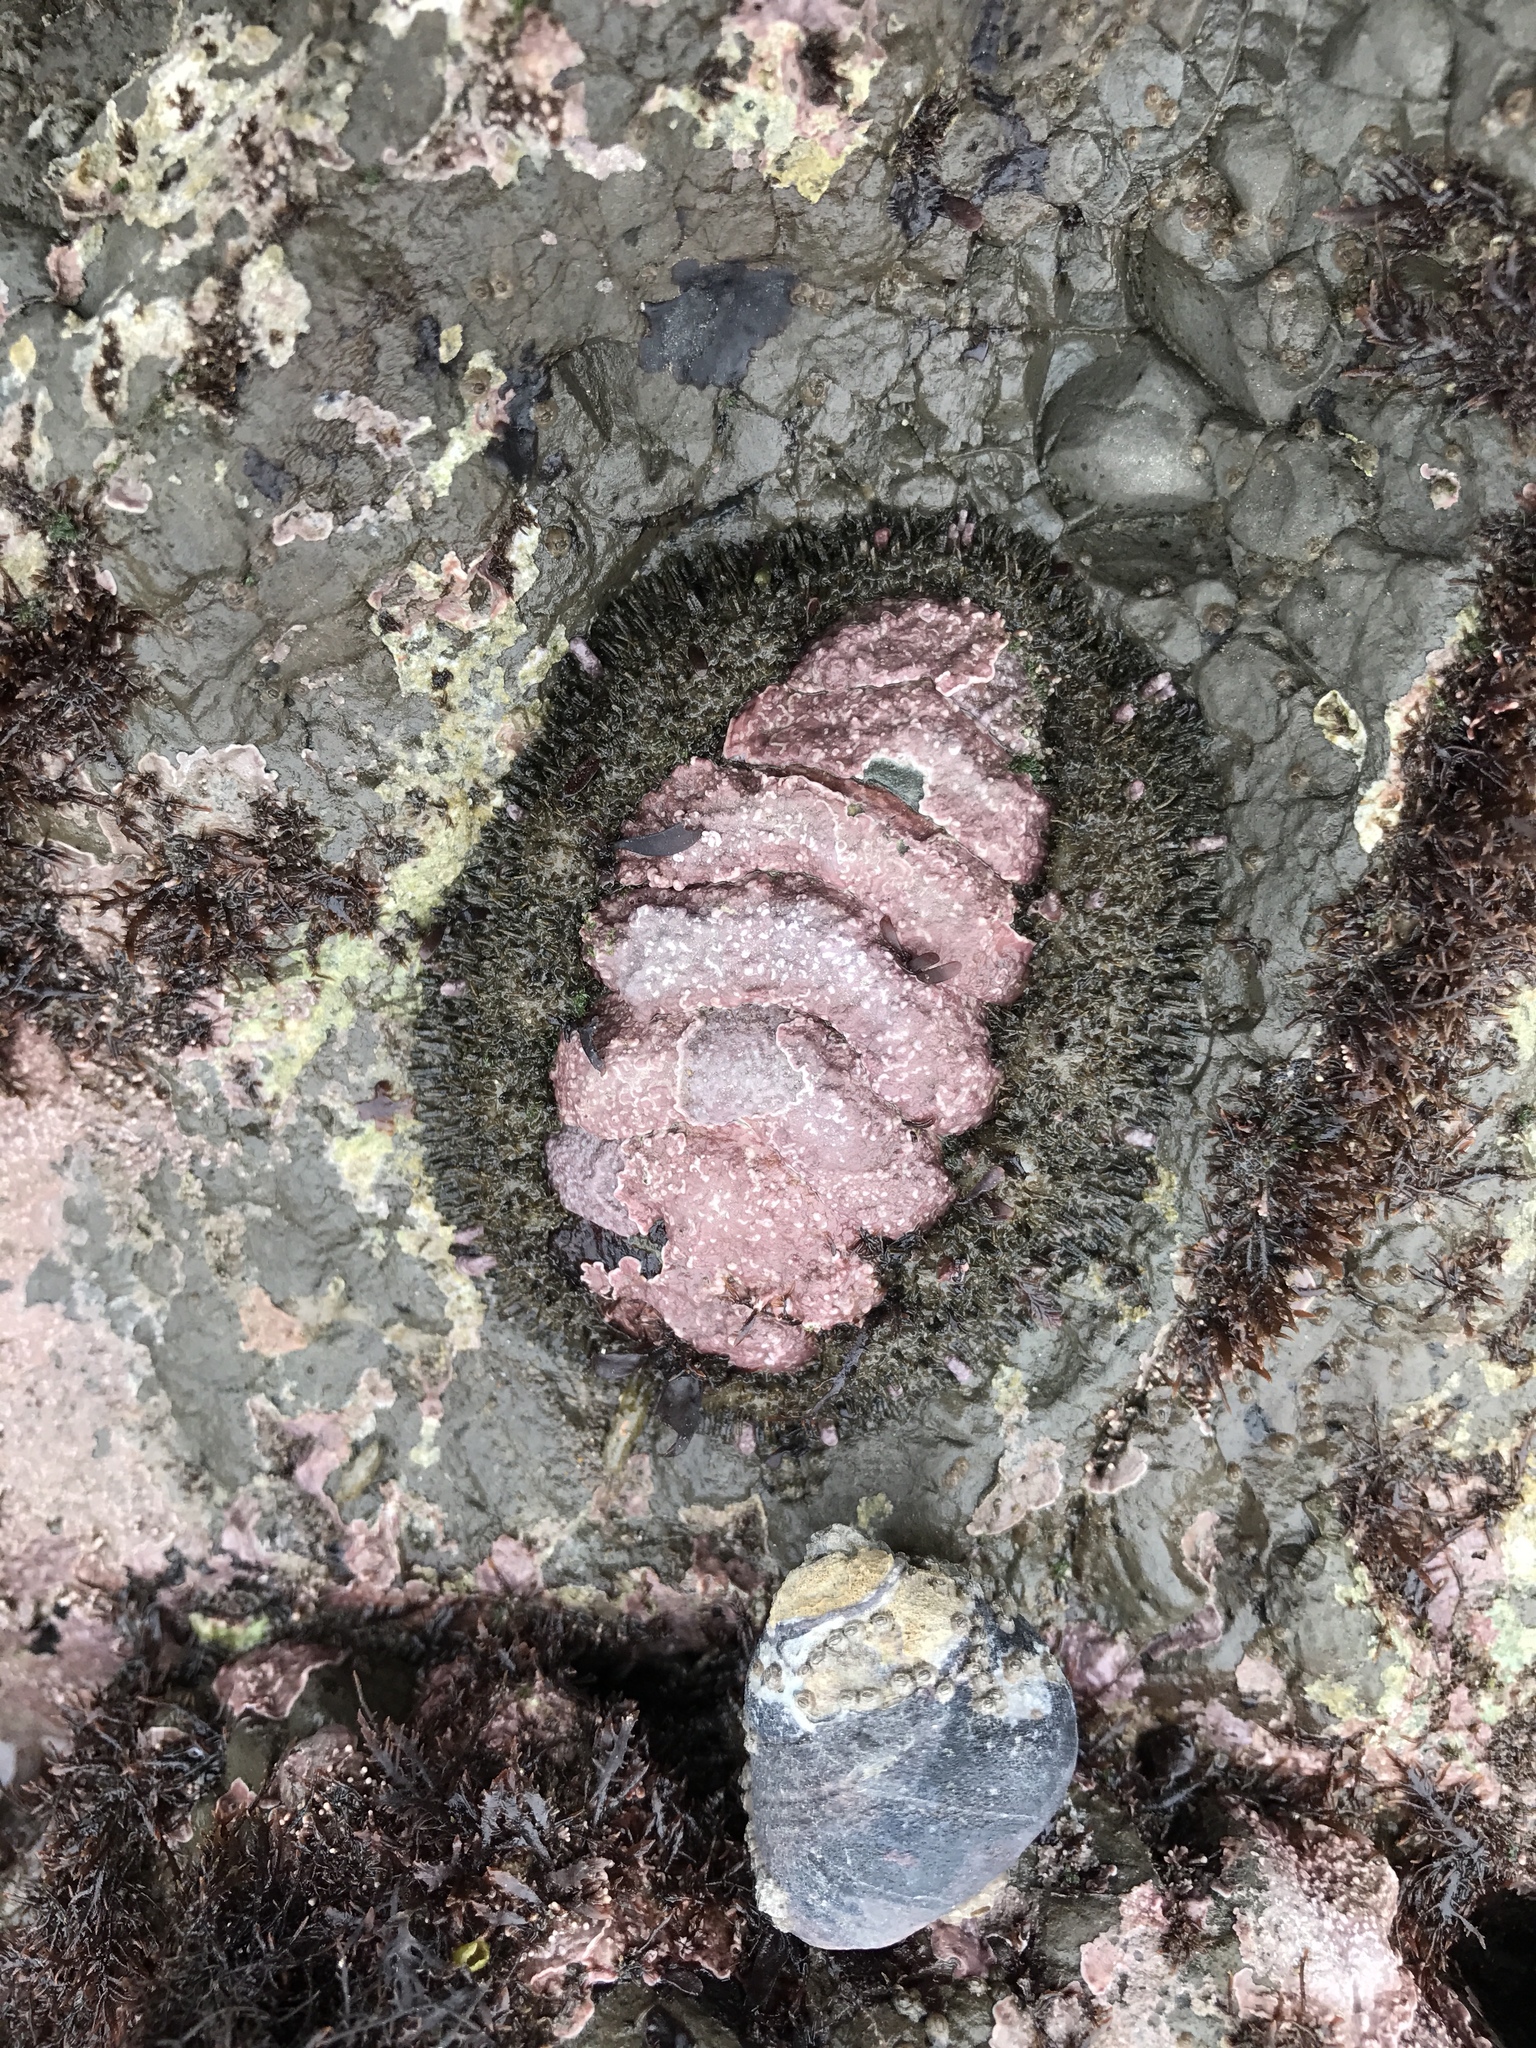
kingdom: Animalia
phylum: Mollusca
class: Polyplacophora
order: Chitonida
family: Mopaliidae
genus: Mopalia
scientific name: Mopalia muscosa
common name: Mossy chiton
